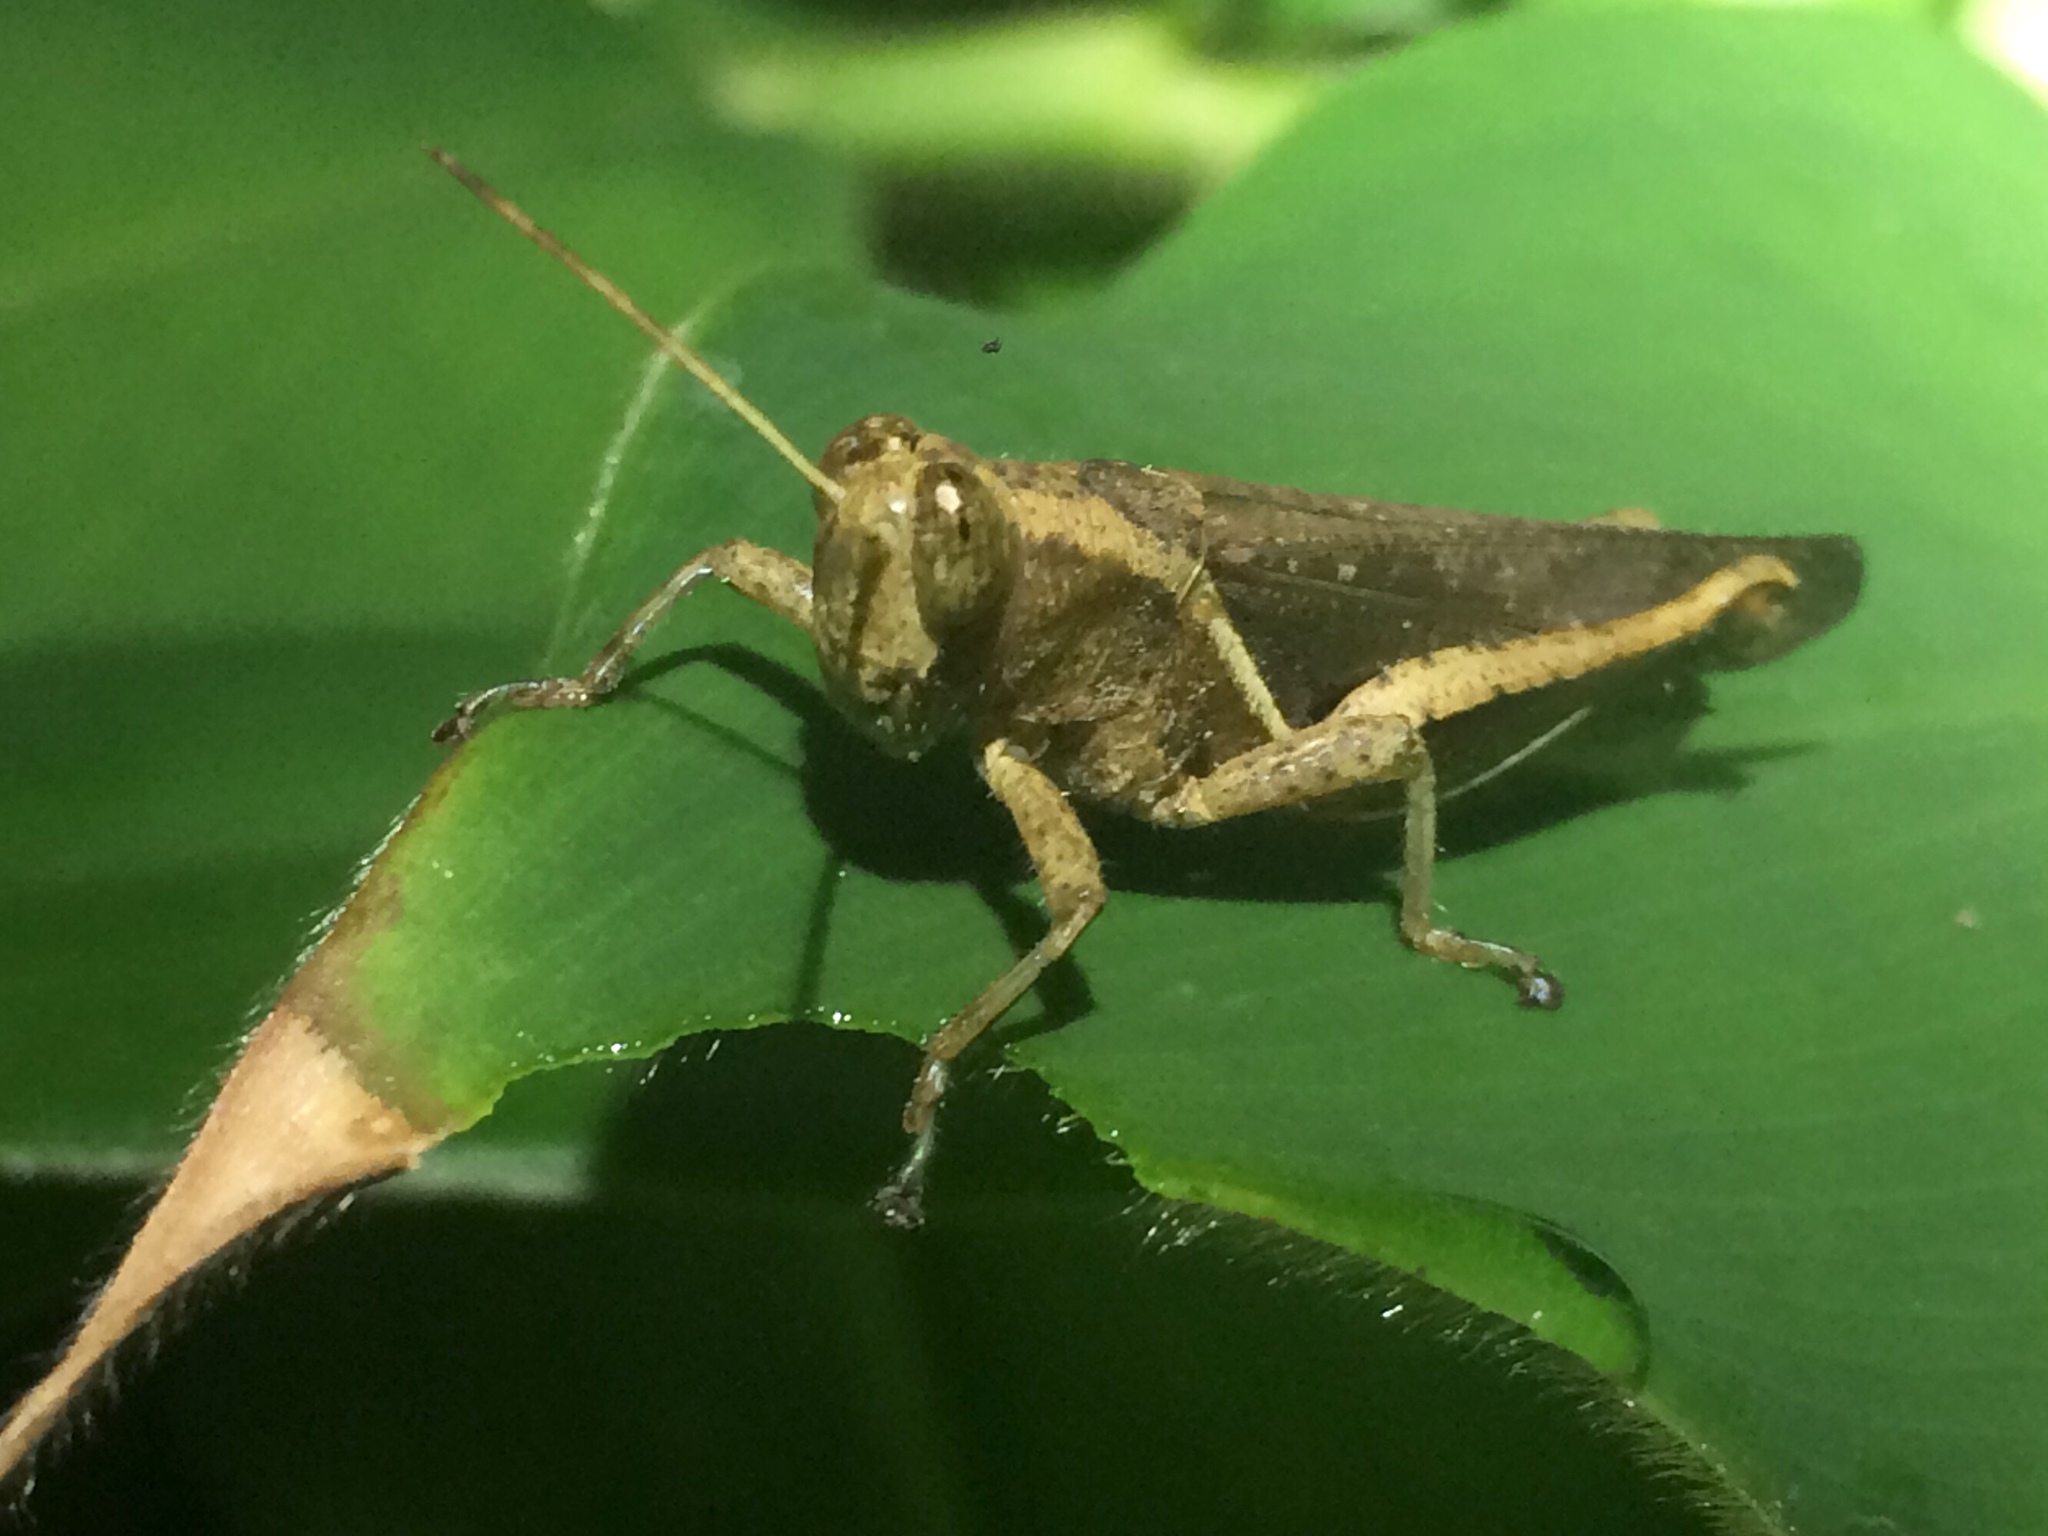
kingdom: Animalia
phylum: Arthropoda
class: Insecta
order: Orthoptera
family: Acrididae
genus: Abracris
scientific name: Abracris flavolineata
